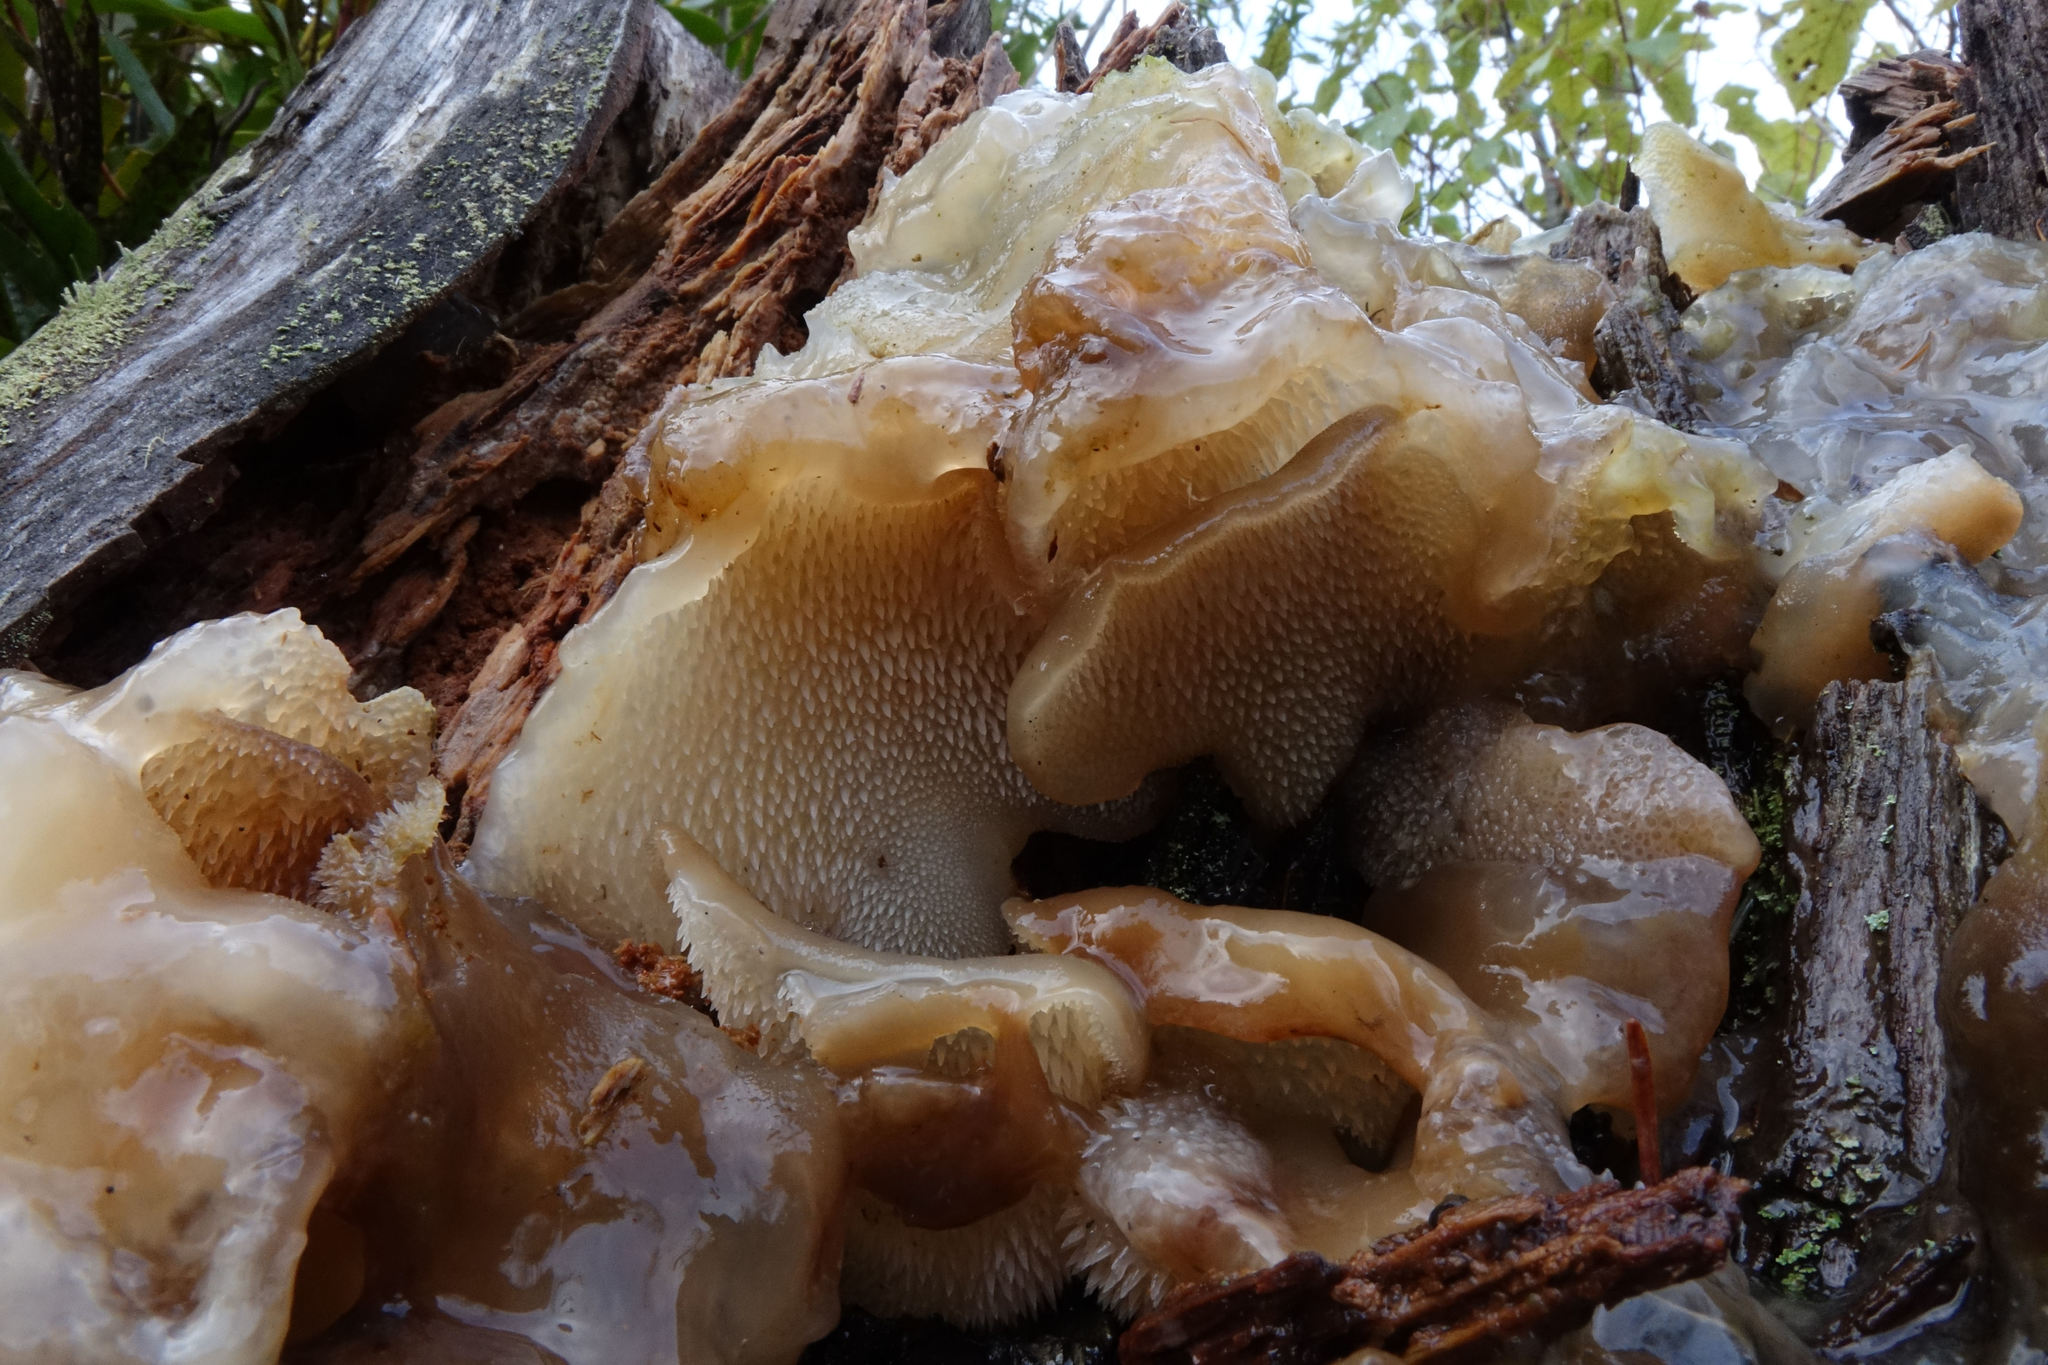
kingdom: Fungi
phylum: Basidiomycota
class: Agaricomycetes
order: Auriculariales
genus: Pseudohydnum
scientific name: Pseudohydnum orbiculare
